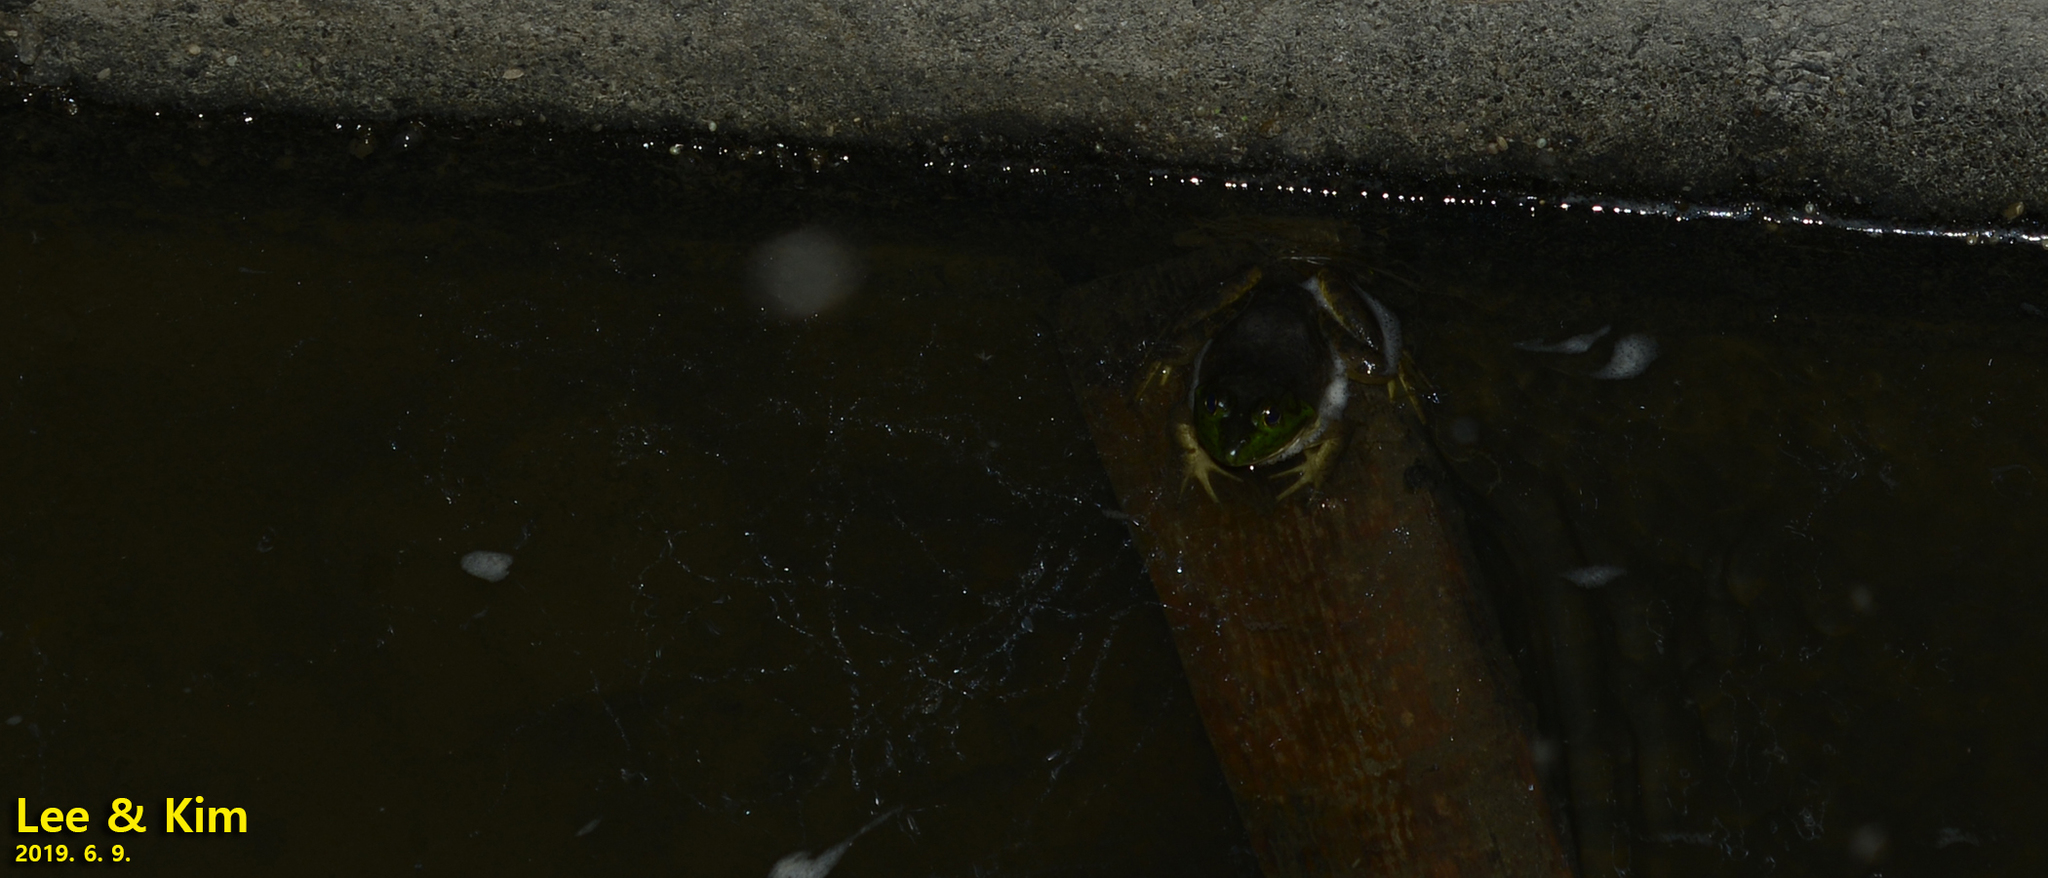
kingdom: Animalia
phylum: Chordata
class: Amphibia
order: Anura
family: Ranidae
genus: Lithobates
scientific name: Lithobates catesbeianus
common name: American bullfrog
